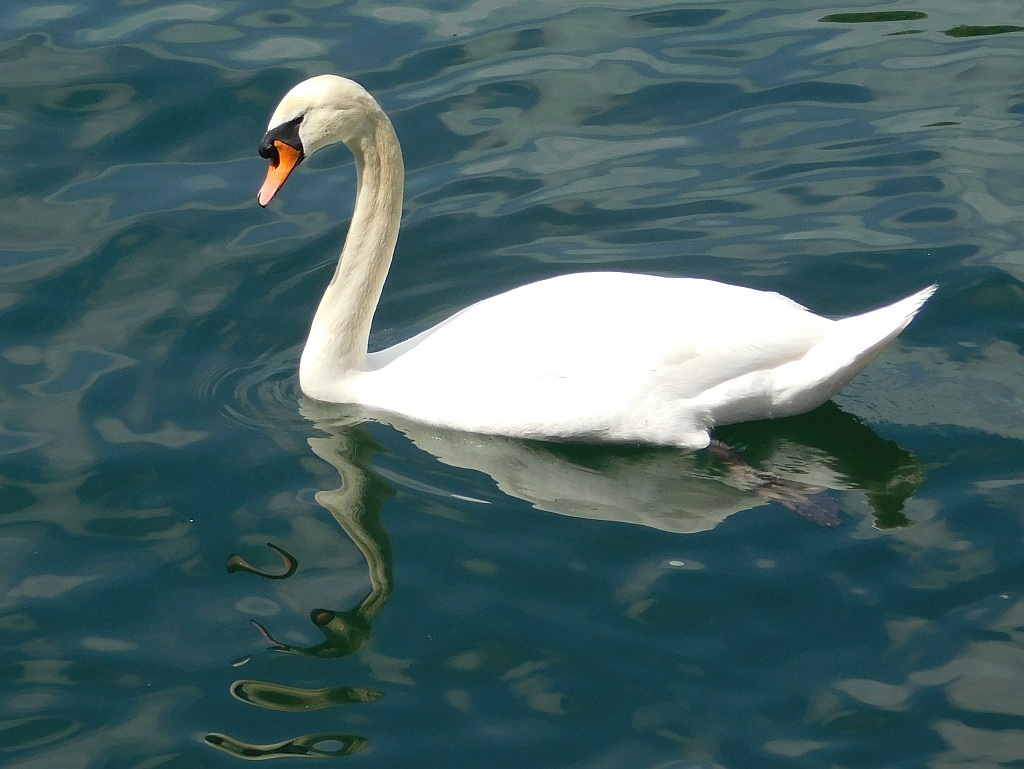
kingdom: Animalia
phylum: Chordata
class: Aves
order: Anseriformes
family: Anatidae
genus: Cygnus
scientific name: Cygnus olor
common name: Mute swan
